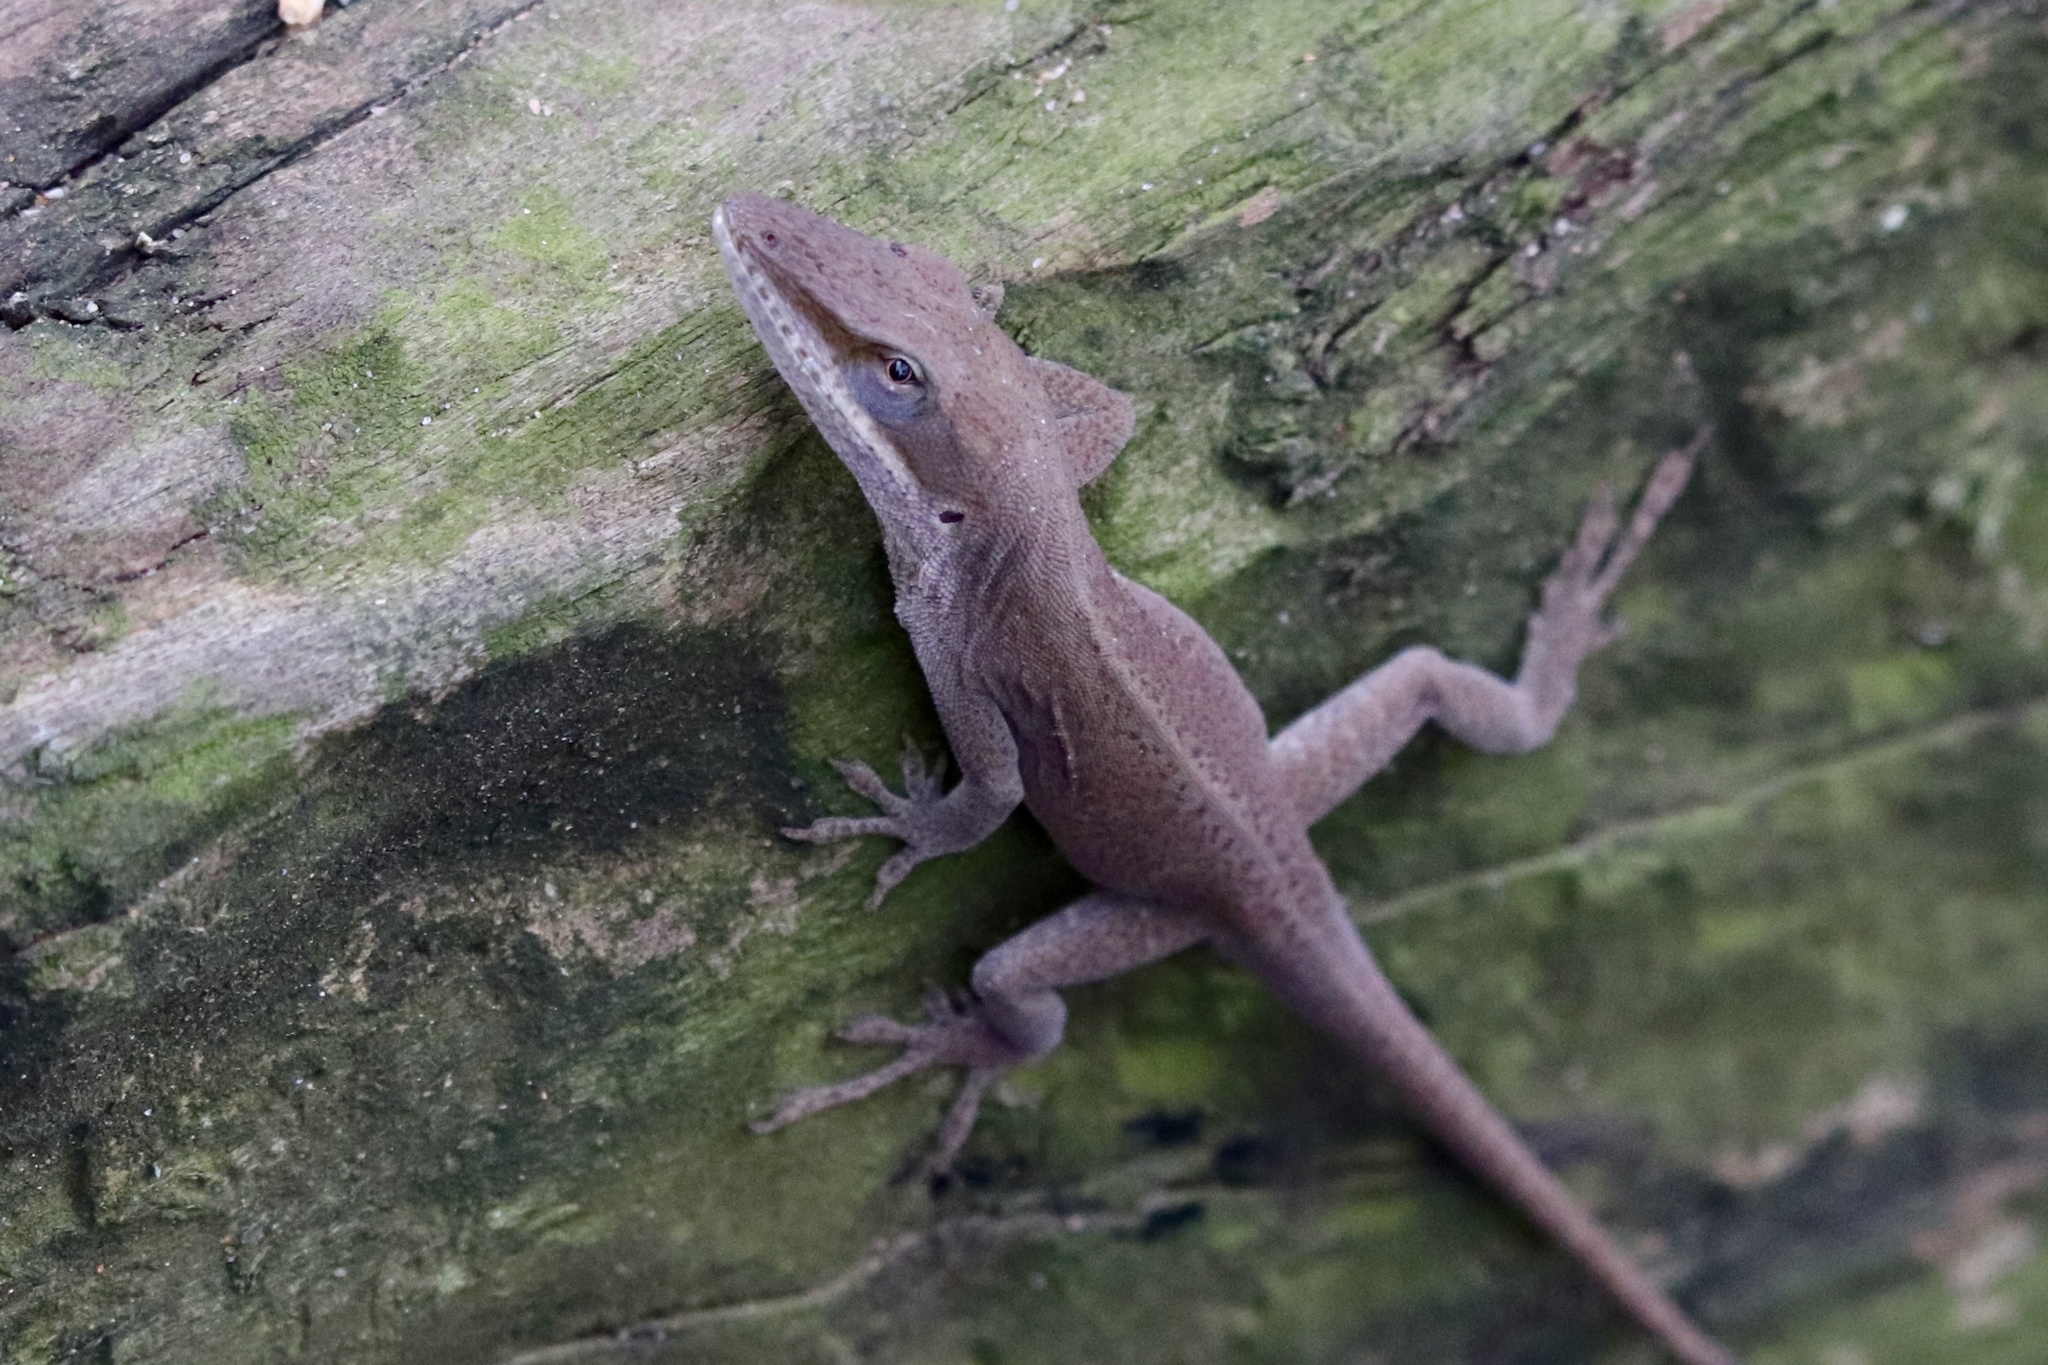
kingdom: Animalia
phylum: Chordata
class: Squamata
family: Dactyloidae
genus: Anolis
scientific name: Anolis carolinensis
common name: Green anole
